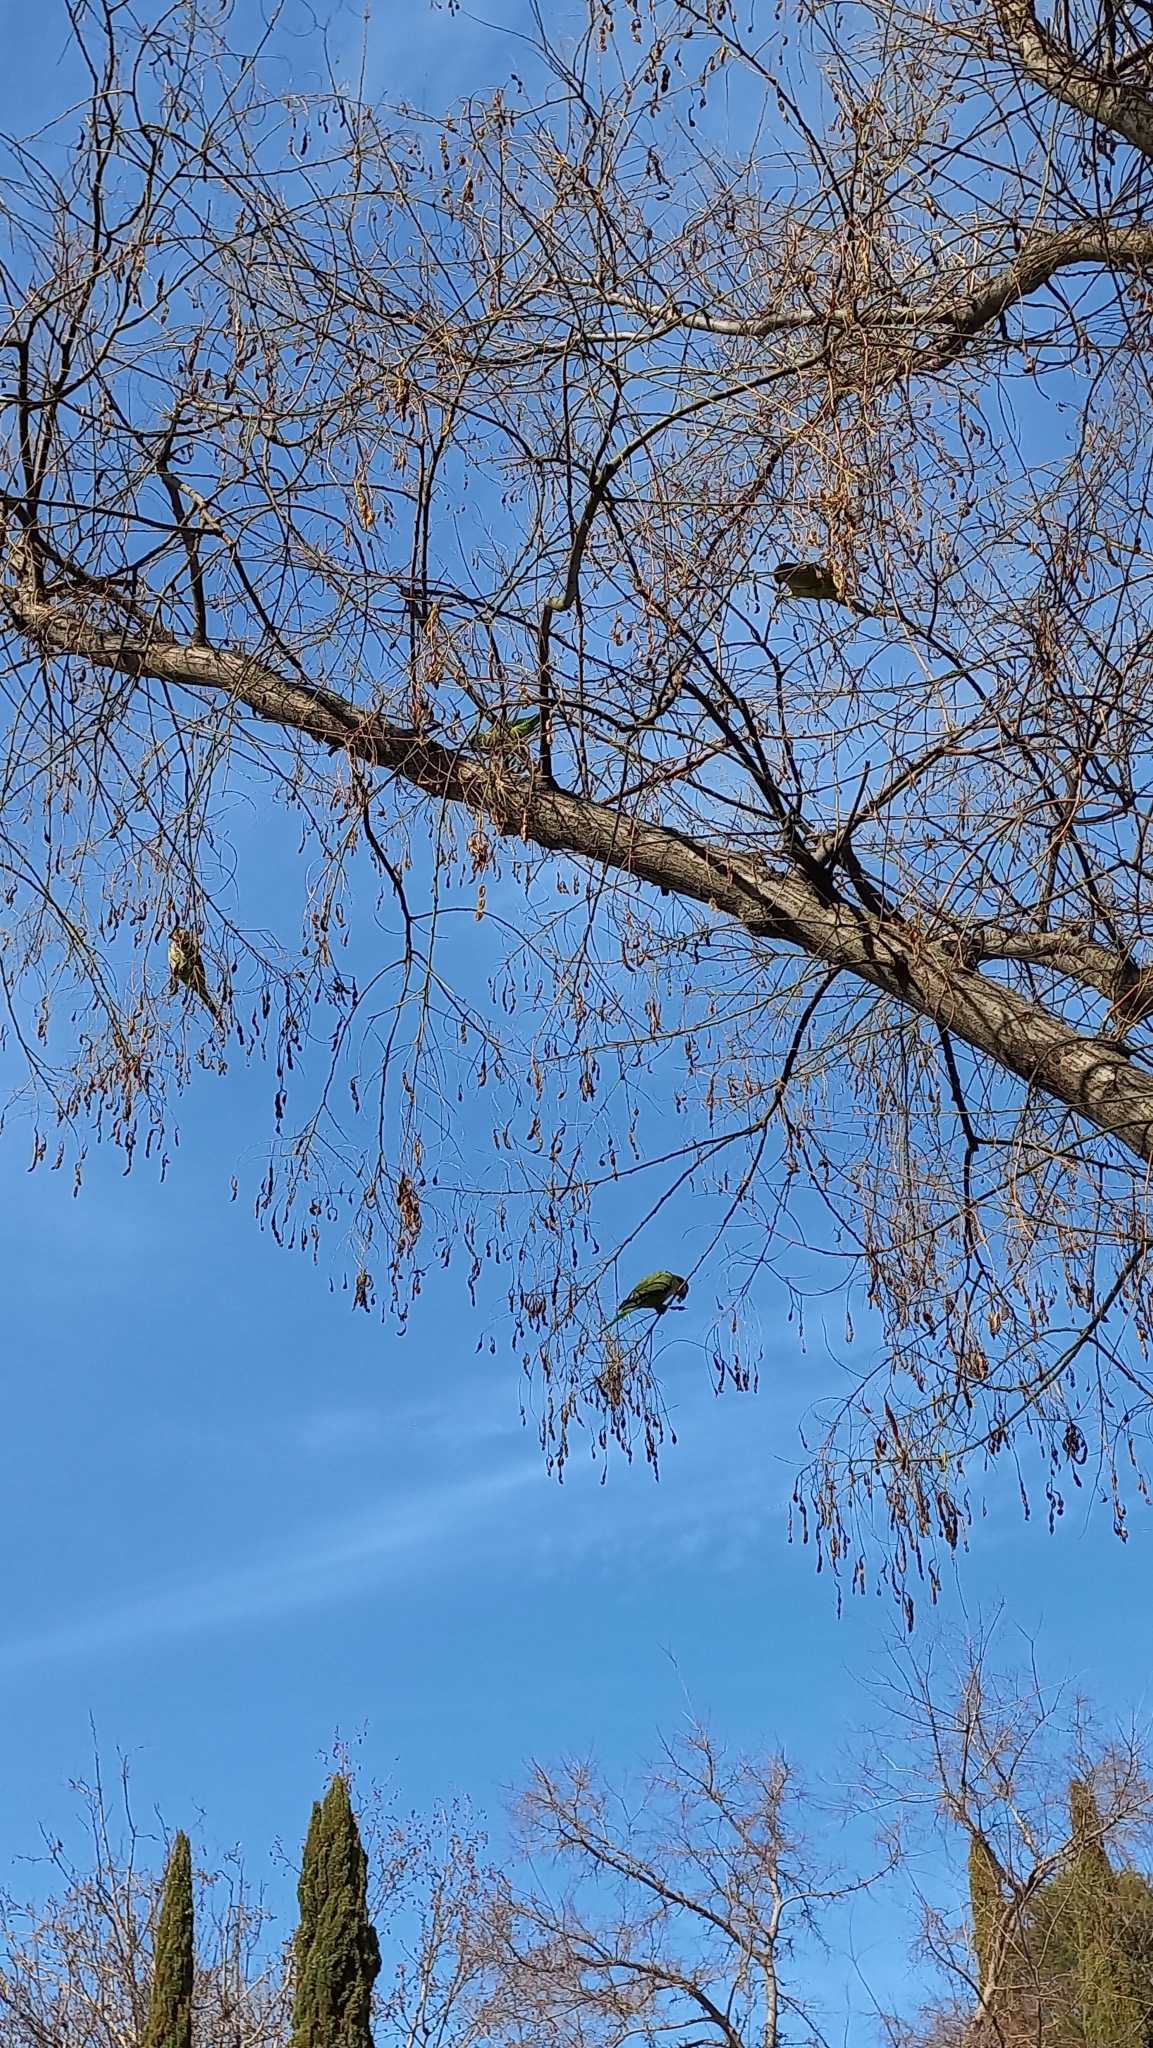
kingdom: Animalia
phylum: Chordata
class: Aves
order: Psittaciformes
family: Psittacidae
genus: Myiopsitta
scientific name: Myiopsitta monachus
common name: Monk parakeet
